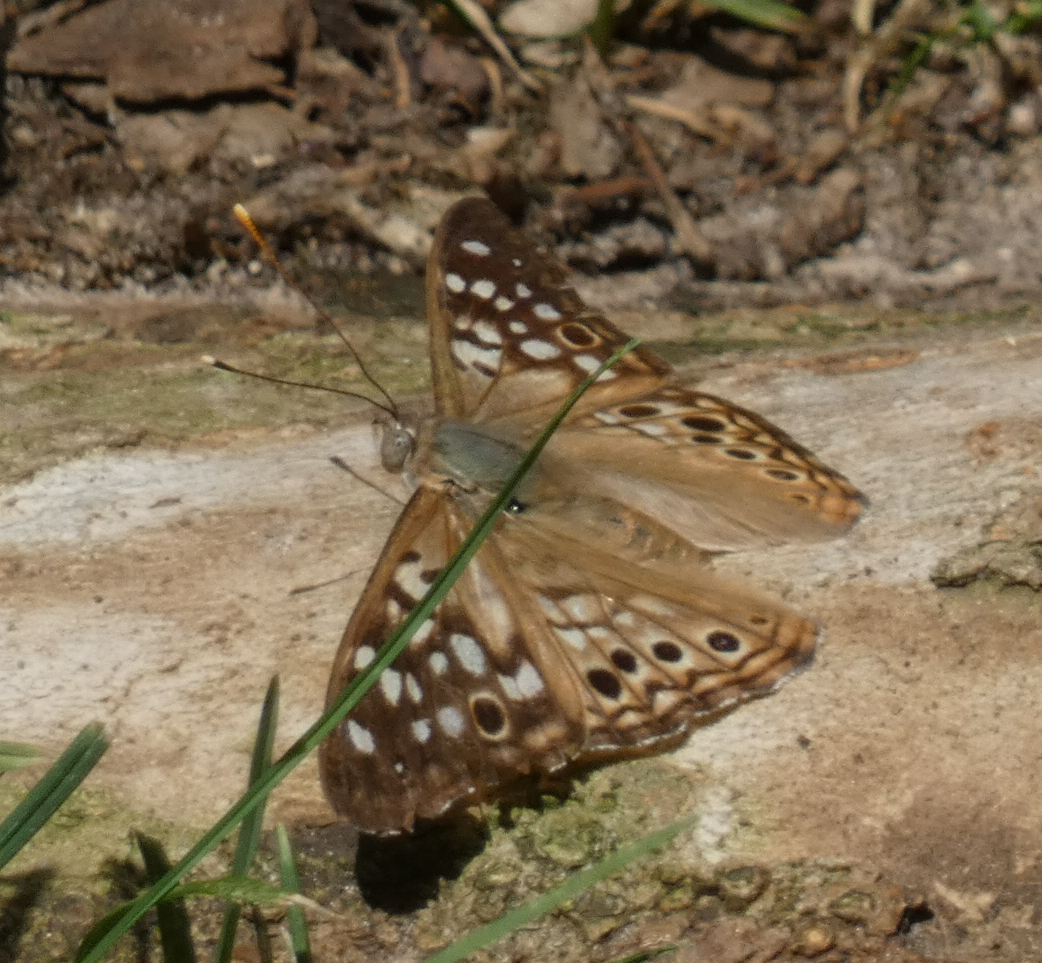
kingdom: Animalia
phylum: Arthropoda
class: Insecta
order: Lepidoptera
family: Nymphalidae
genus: Asterocampa
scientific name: Asterocampa celtis
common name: Hackberry emperor
